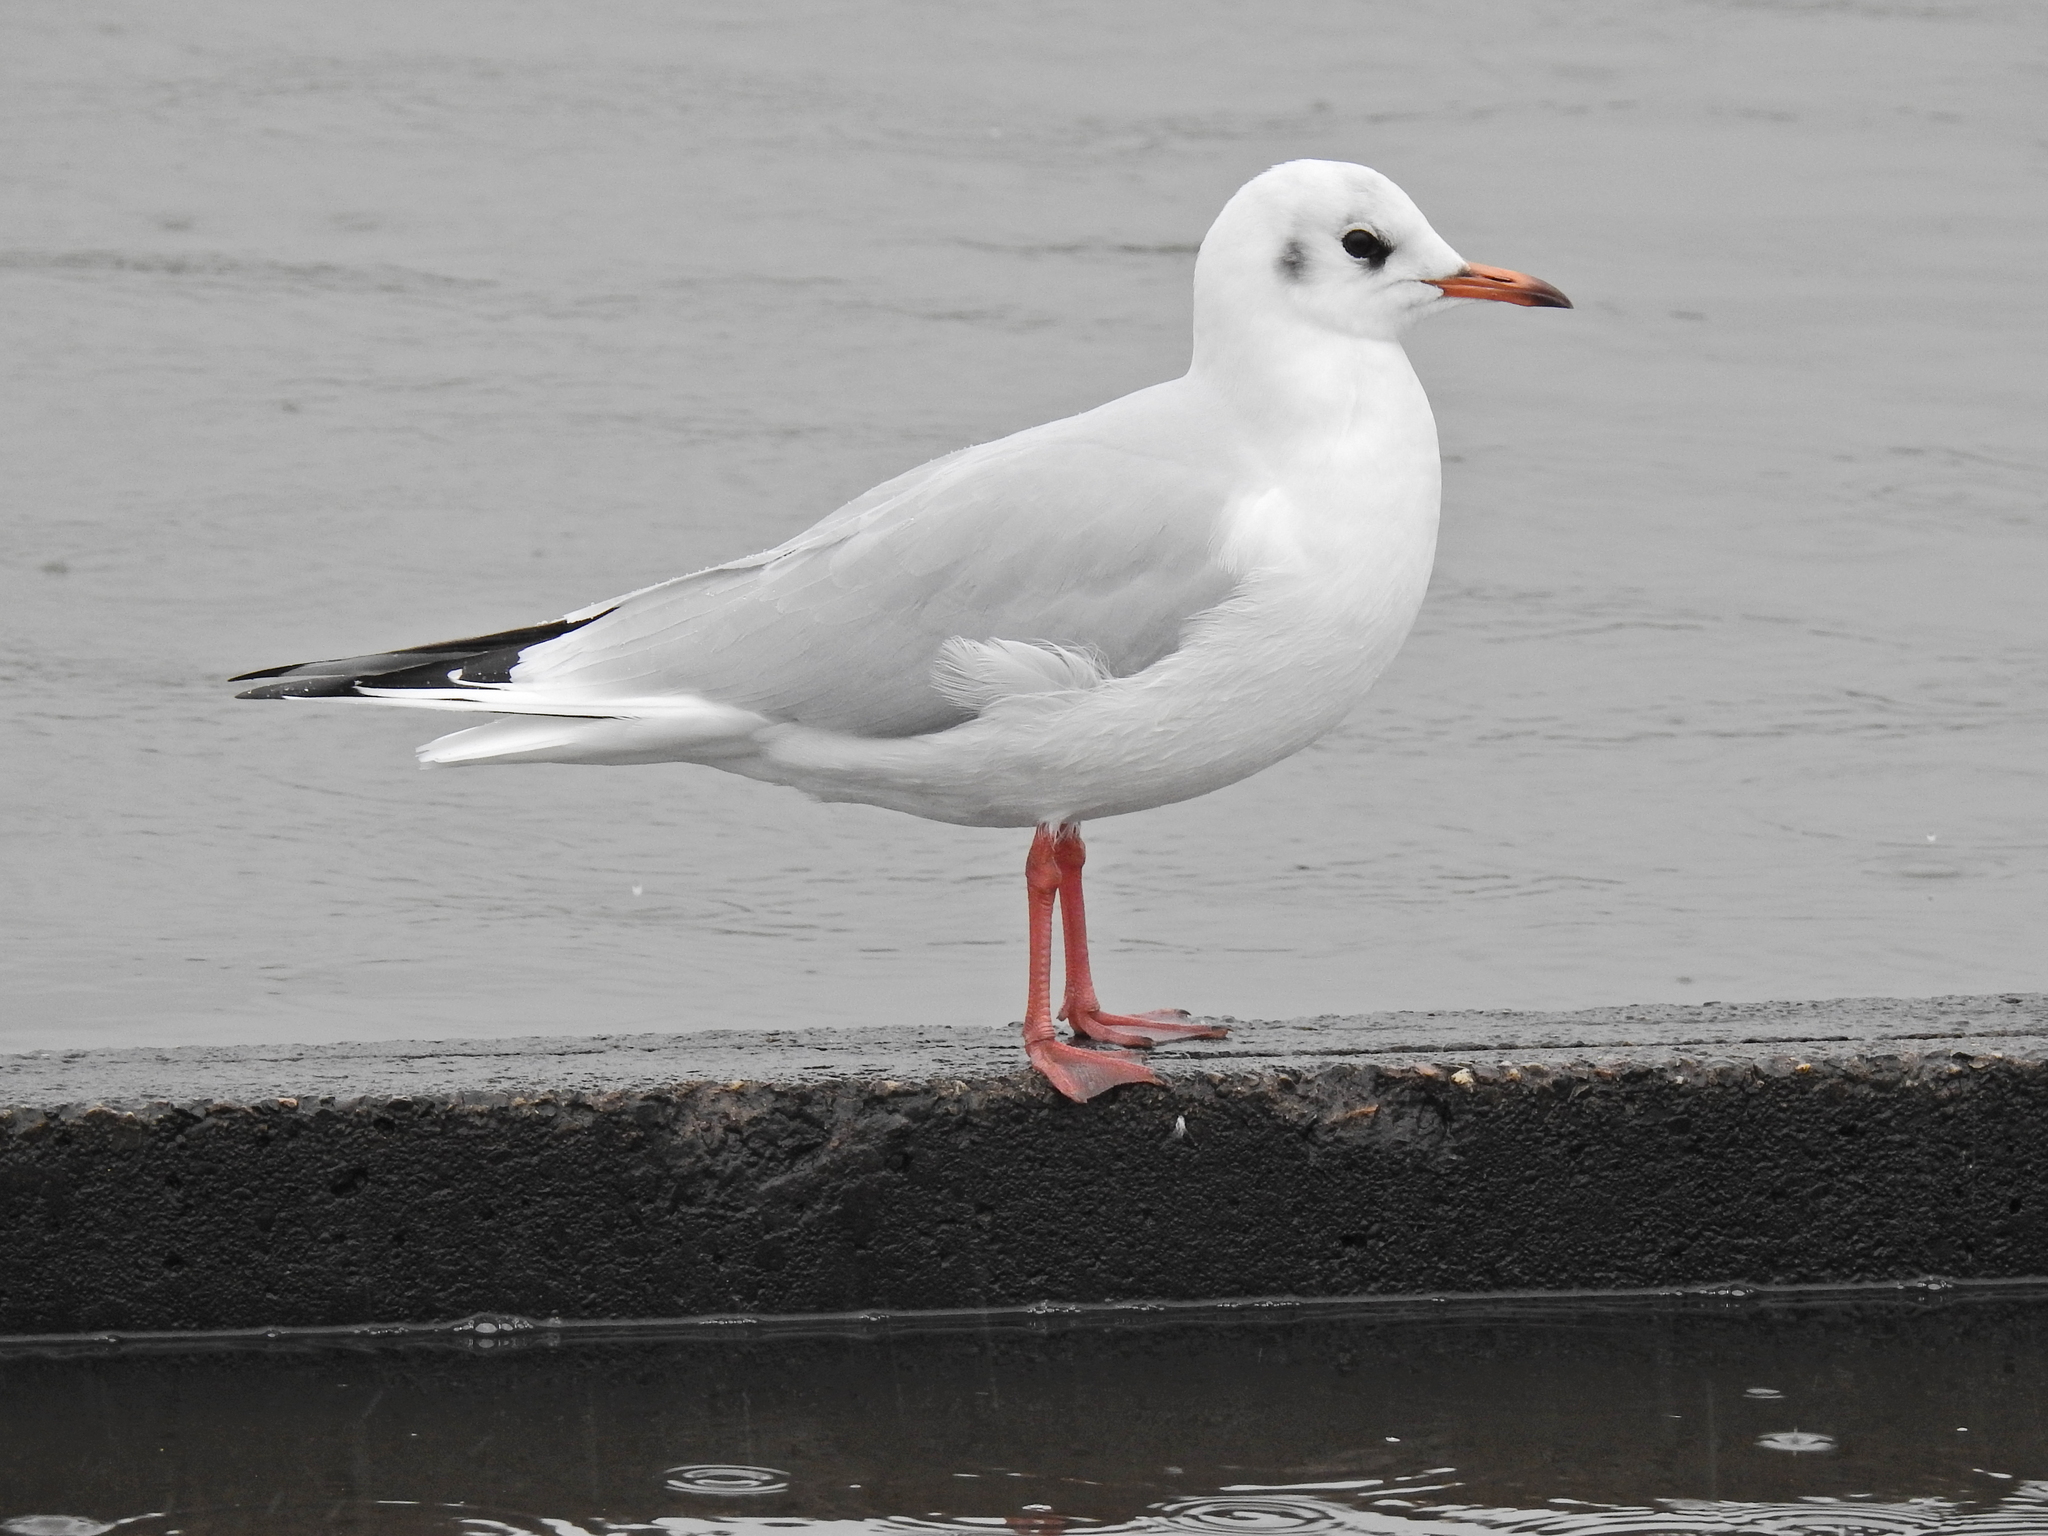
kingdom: Animalia
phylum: Chordata
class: Aves
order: Charadriiformes
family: Laridae
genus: Chroicocephalus
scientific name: Chroicocephalus ridibundus
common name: Black-headed gull
